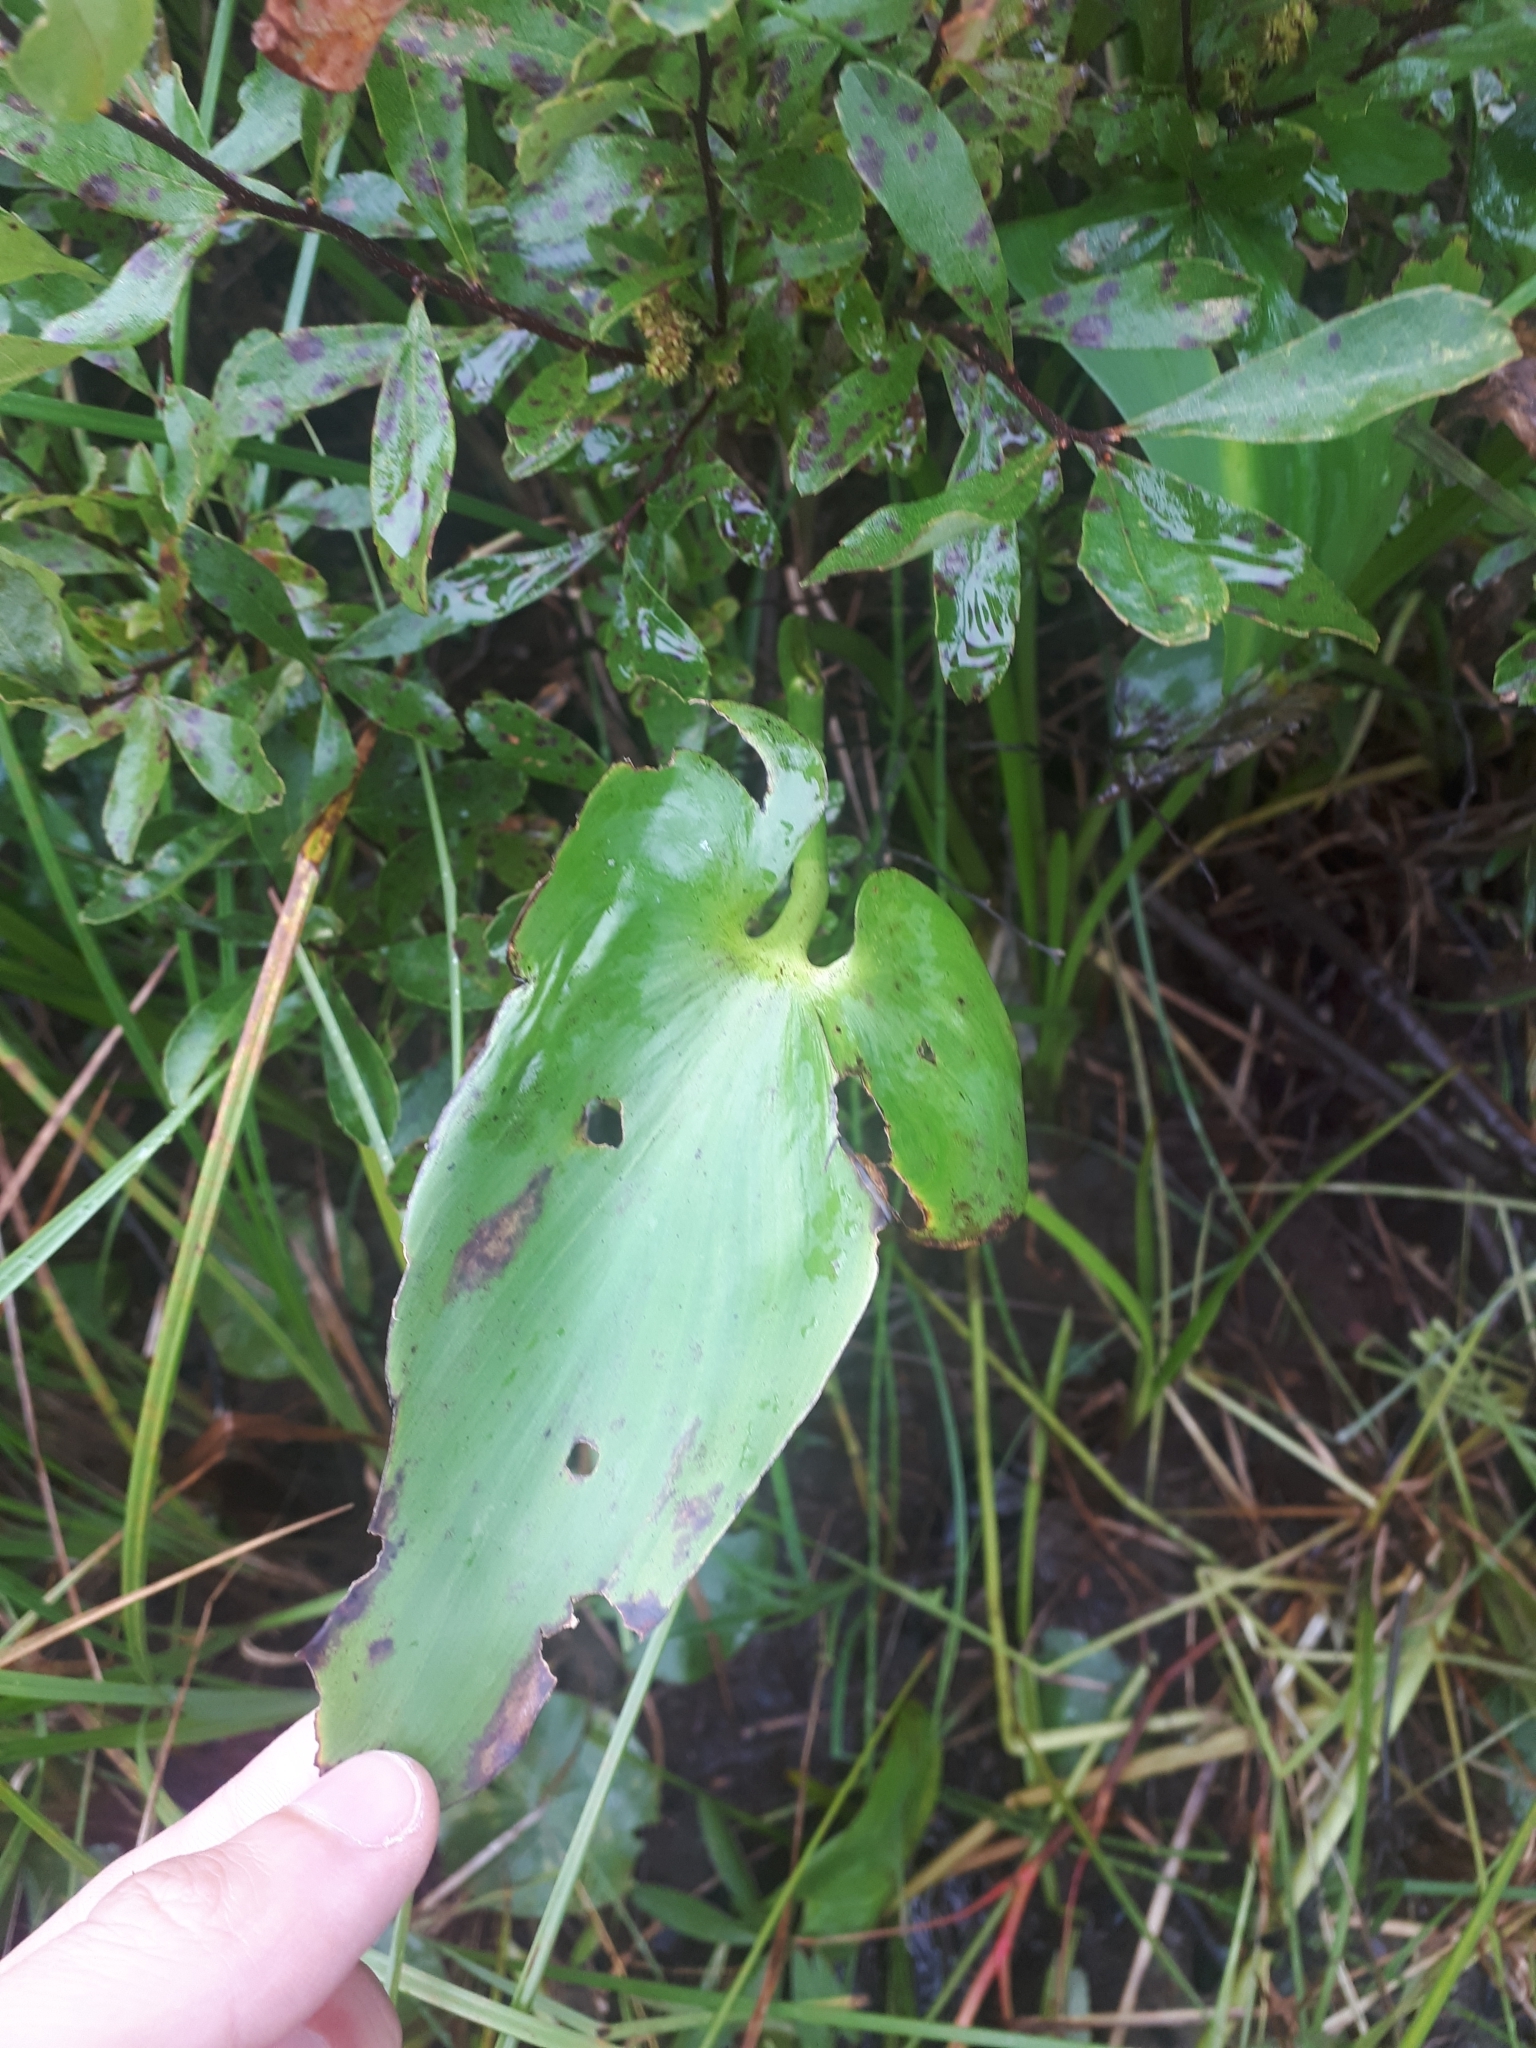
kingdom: Plantae
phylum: Tracheophyta
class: Liliopsida
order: Commelinales
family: Pontederiaceae
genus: Pontederia
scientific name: Pontederia cordata
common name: Pickerelweed
